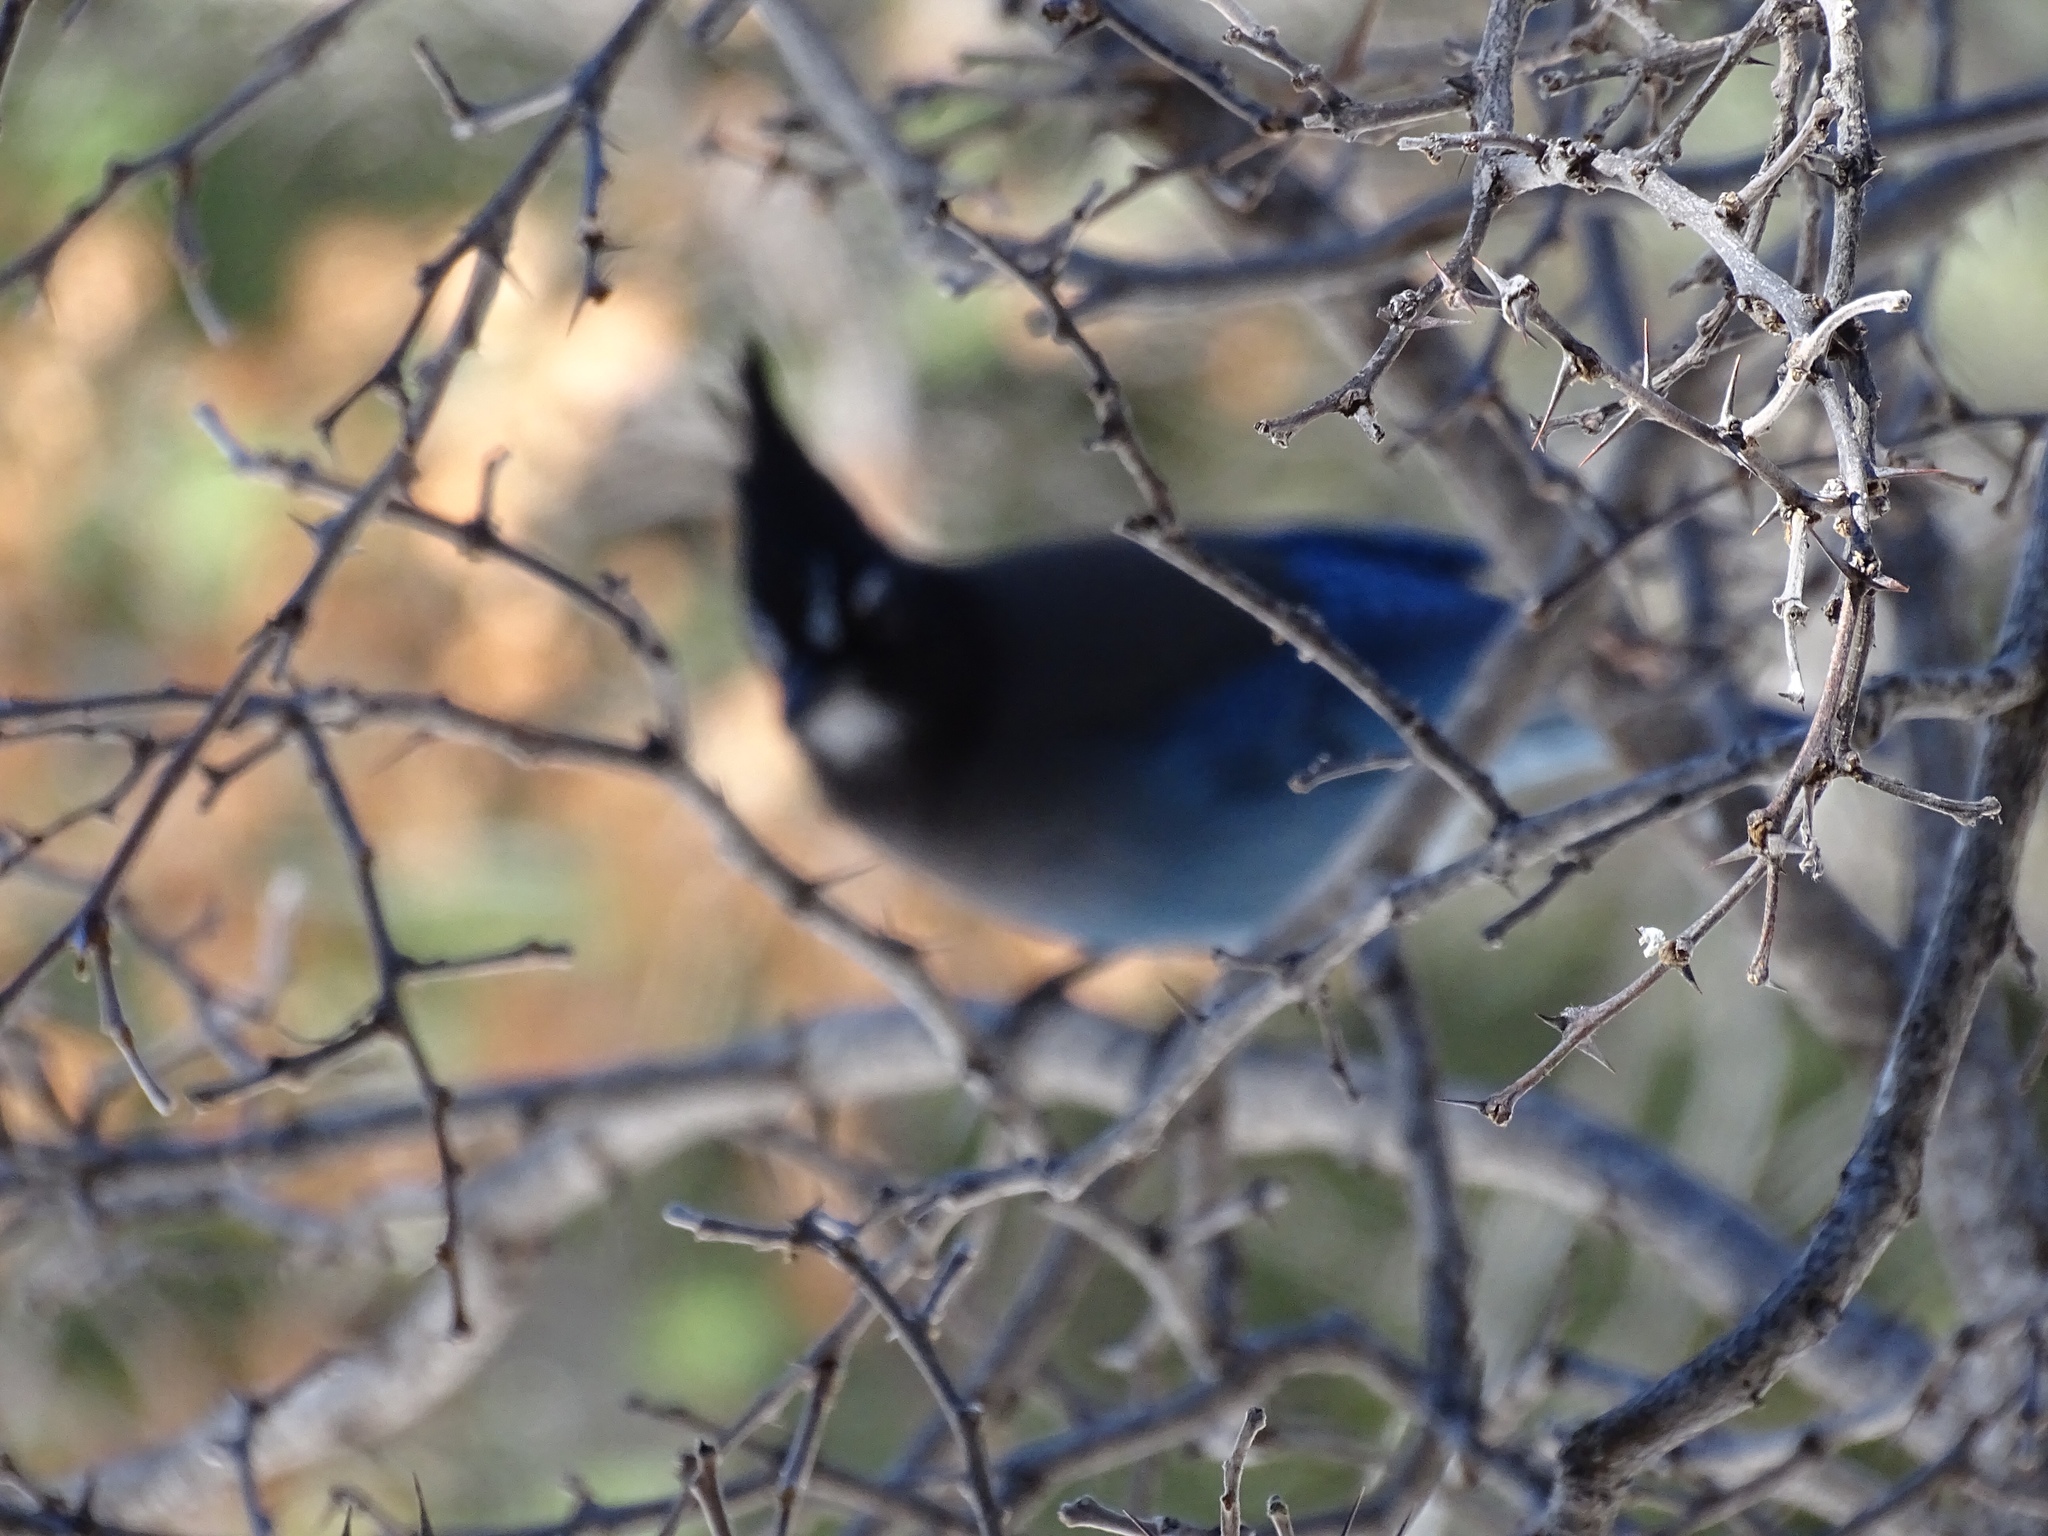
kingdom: Animalia
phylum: Chordata
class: Aves
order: Passeriformes
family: Corvidae
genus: Cyanocitta
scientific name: Cyanocitta stelleri
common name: Steller's jay
